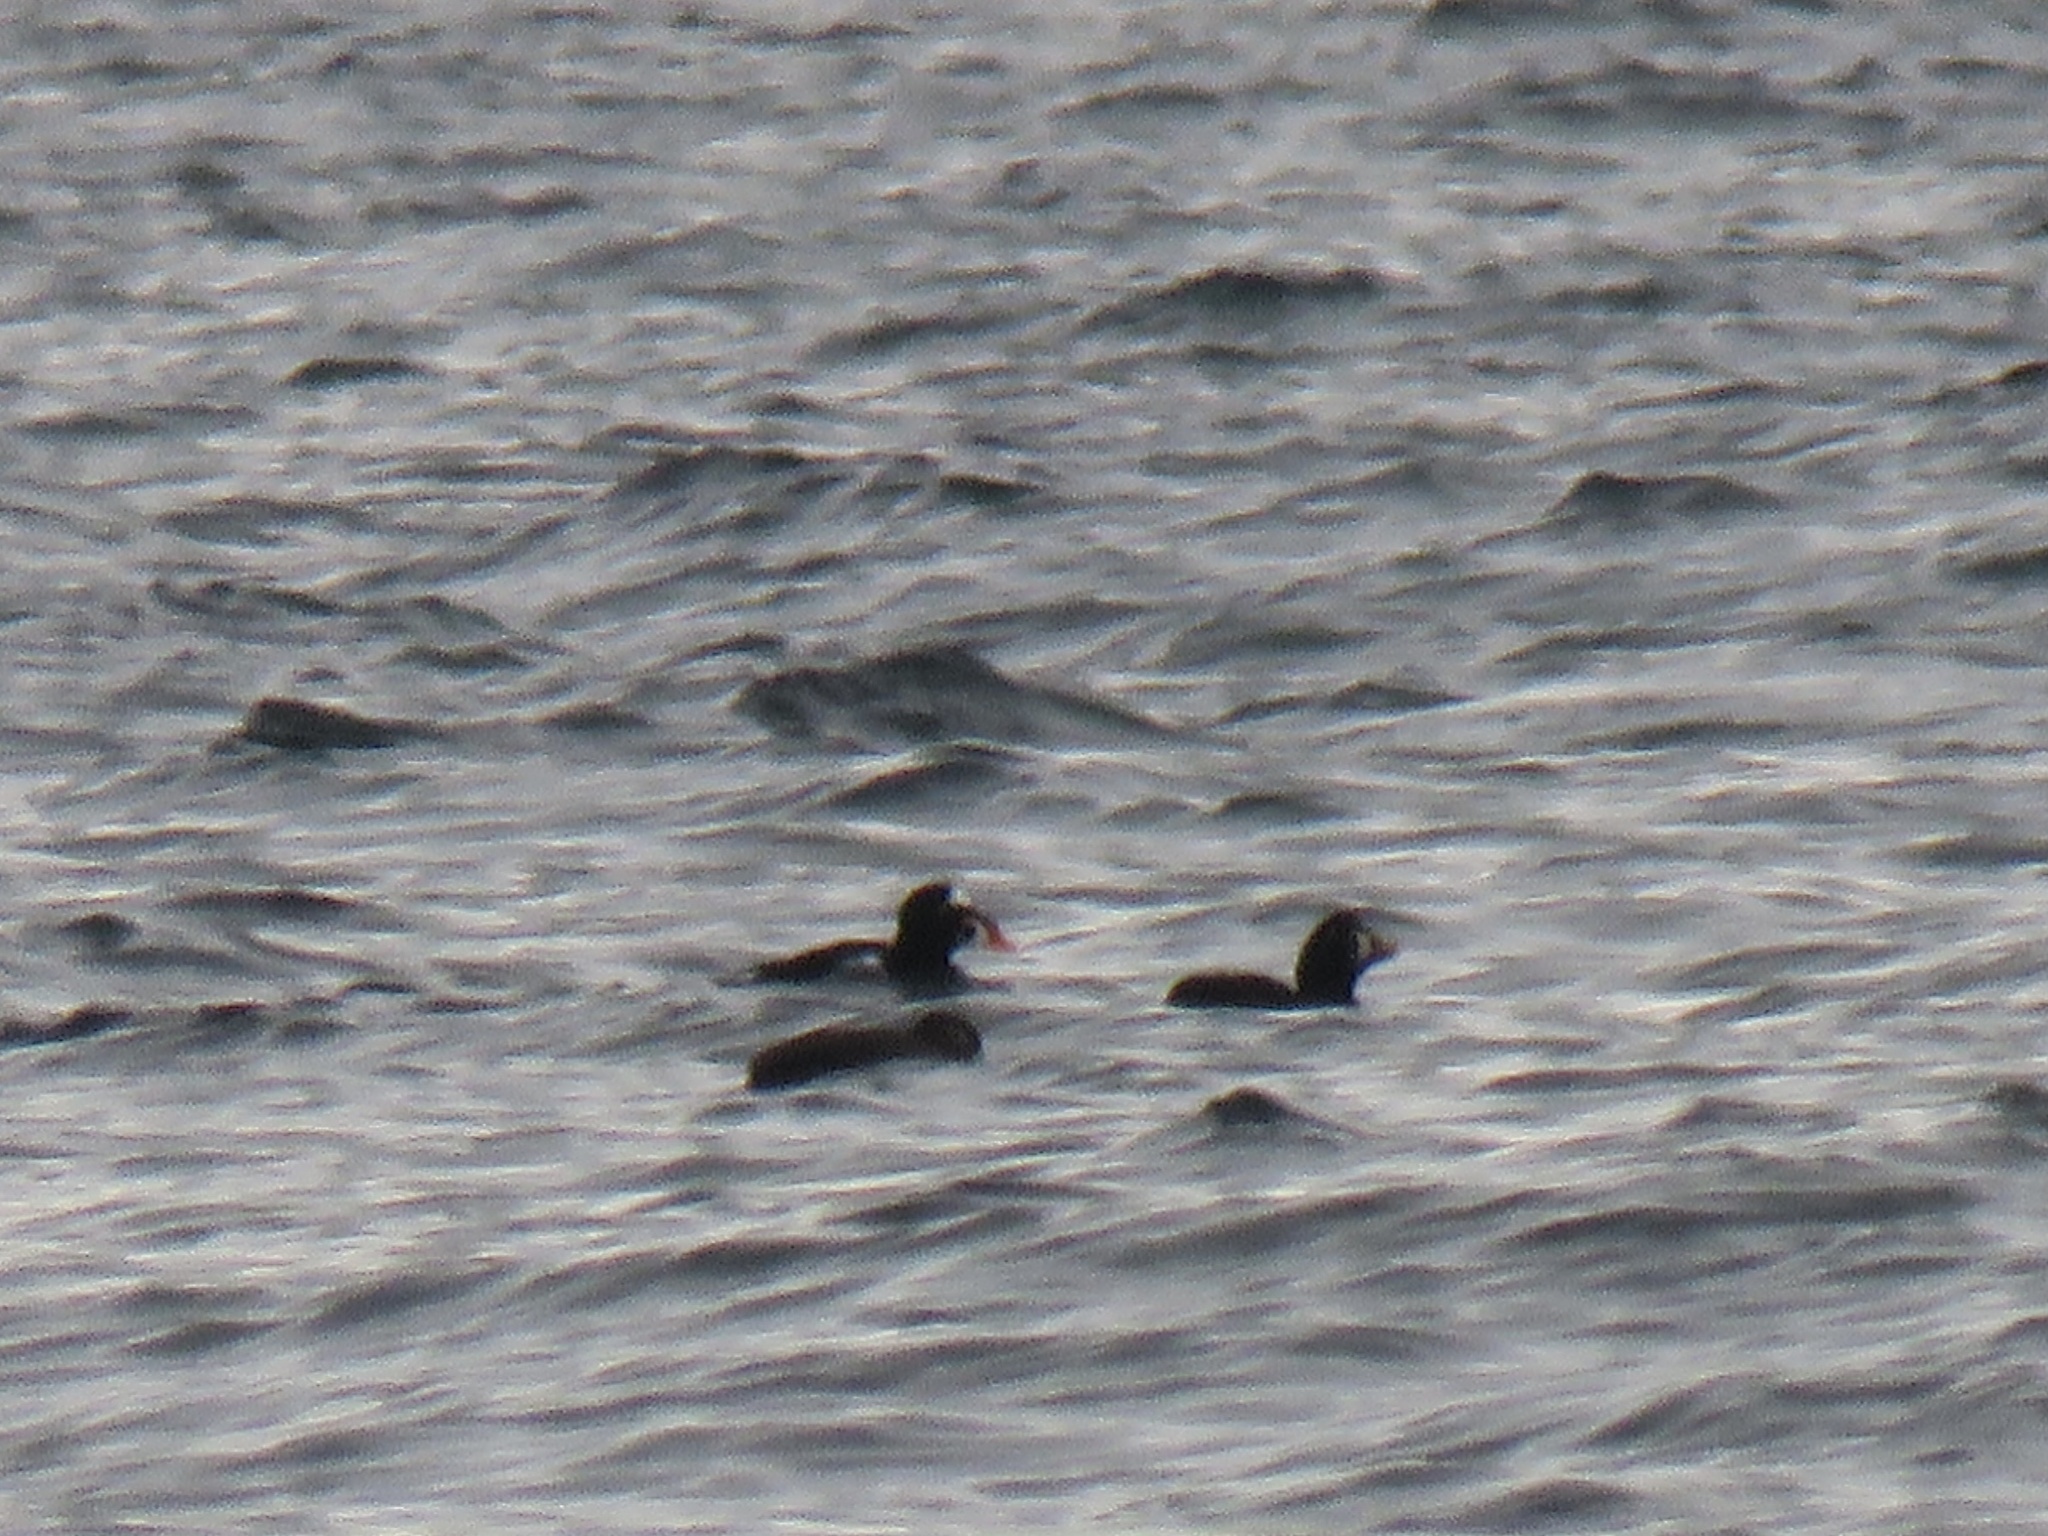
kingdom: Animalia
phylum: Chordata
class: Aves
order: Anseriformes
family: Anatidae
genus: Melanitta
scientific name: Melanitta perspicillata
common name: Surf scoter
